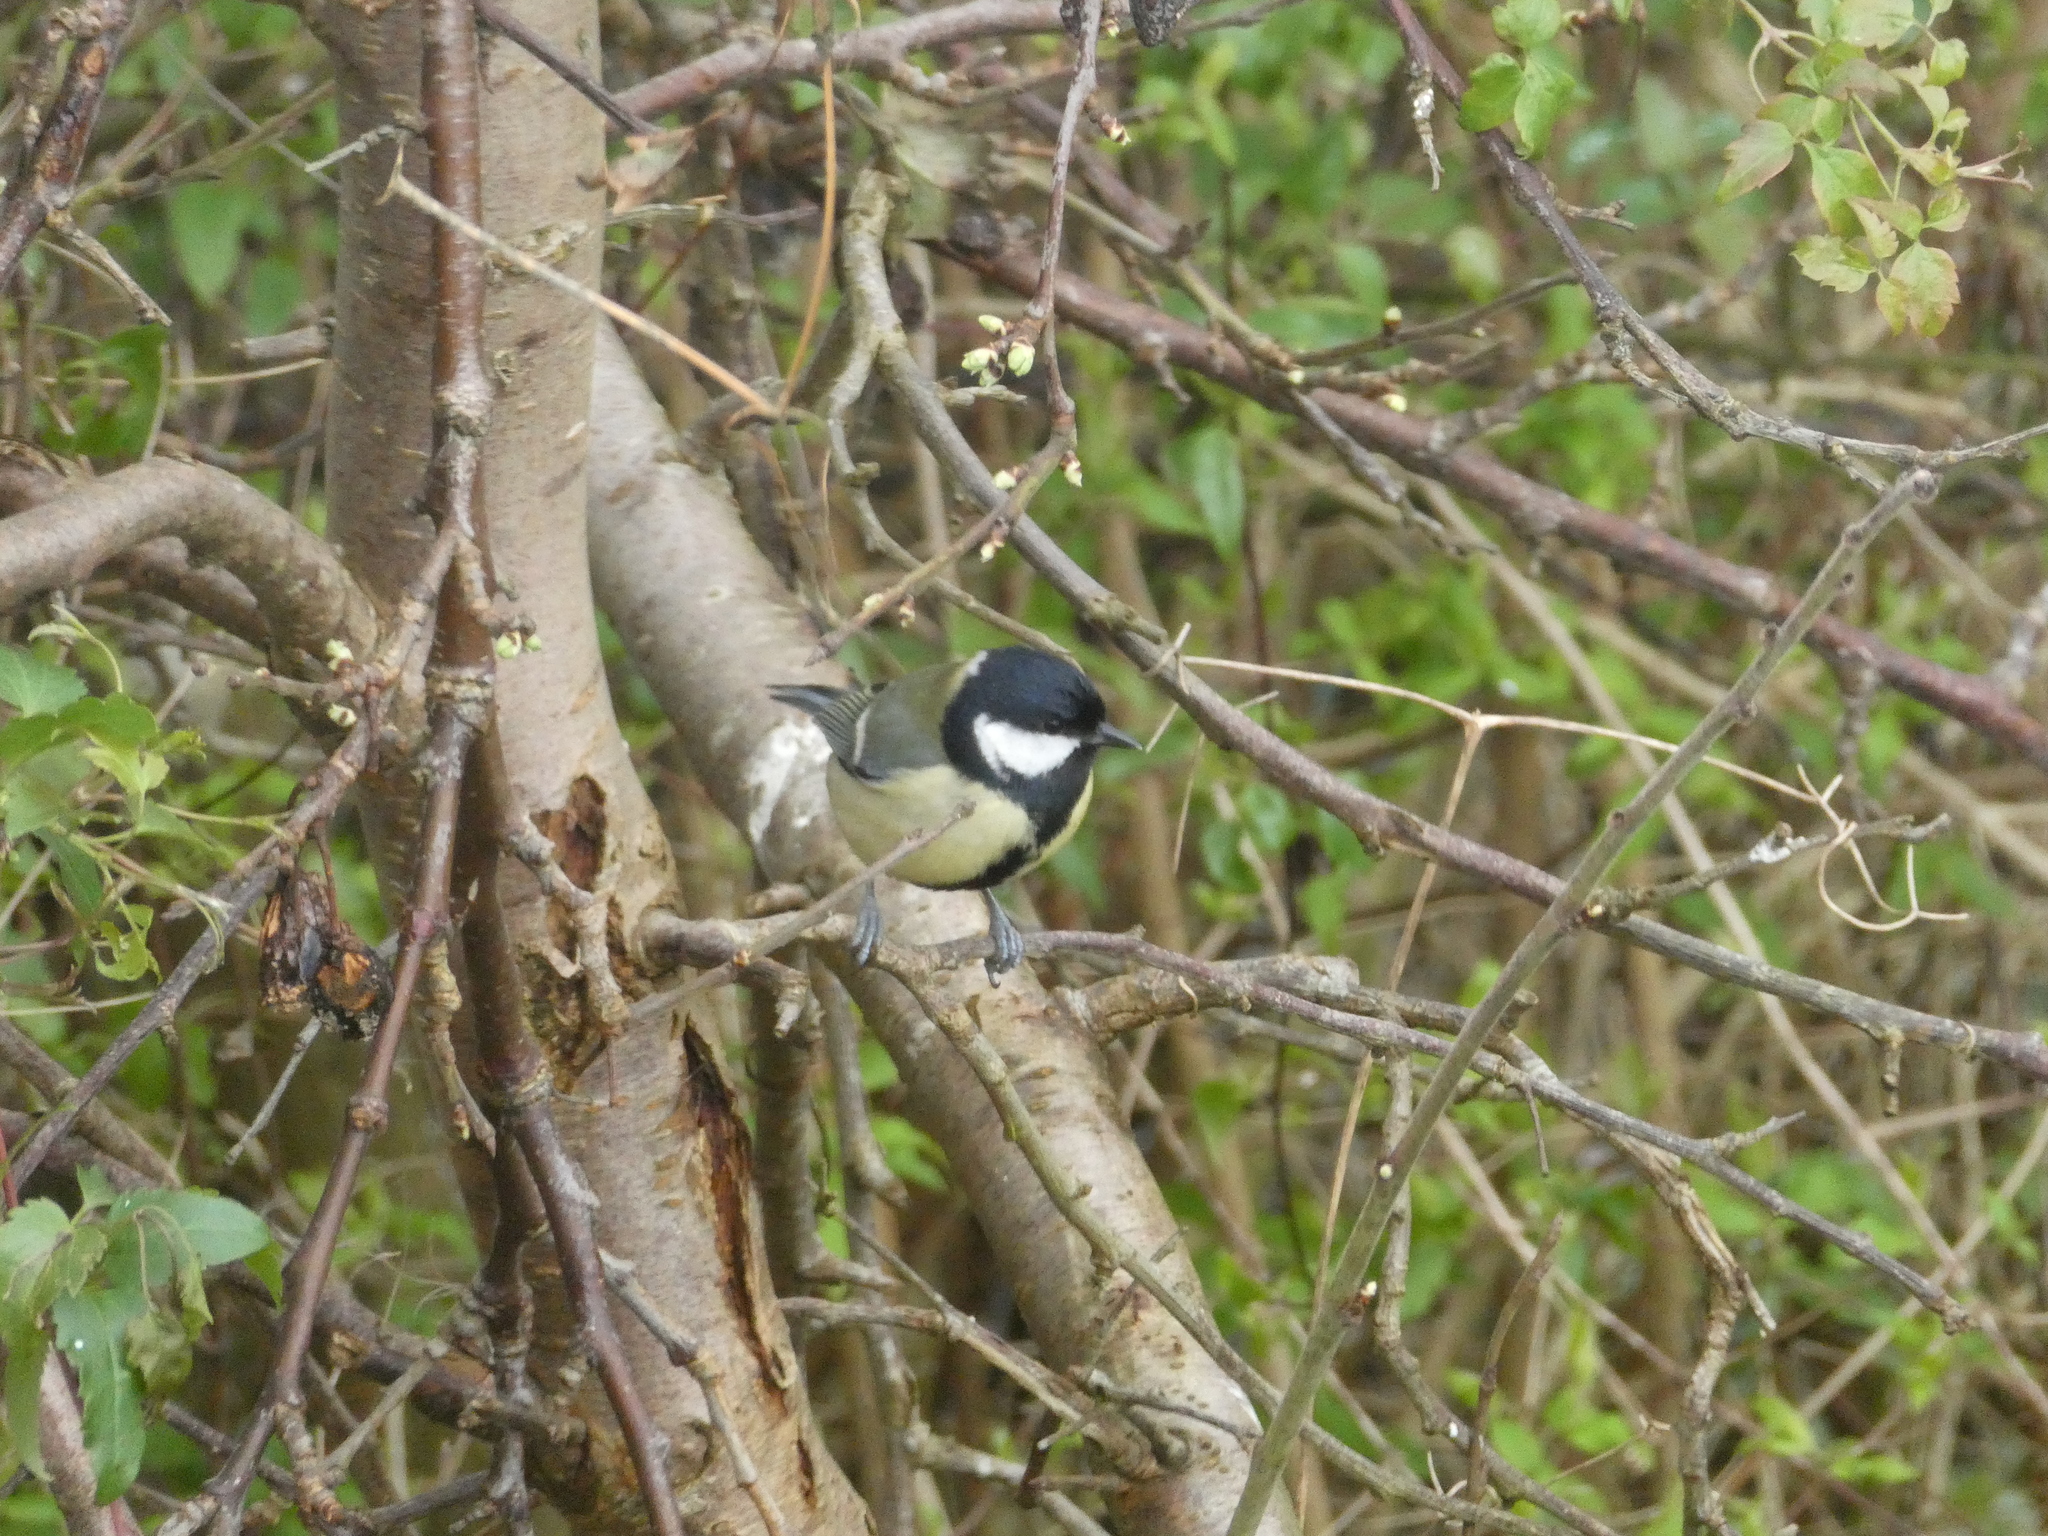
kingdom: Animalia
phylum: Chordata
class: Aves
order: Passeriformes
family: Paridae
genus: Parus
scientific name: Parus major
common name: Great tit
